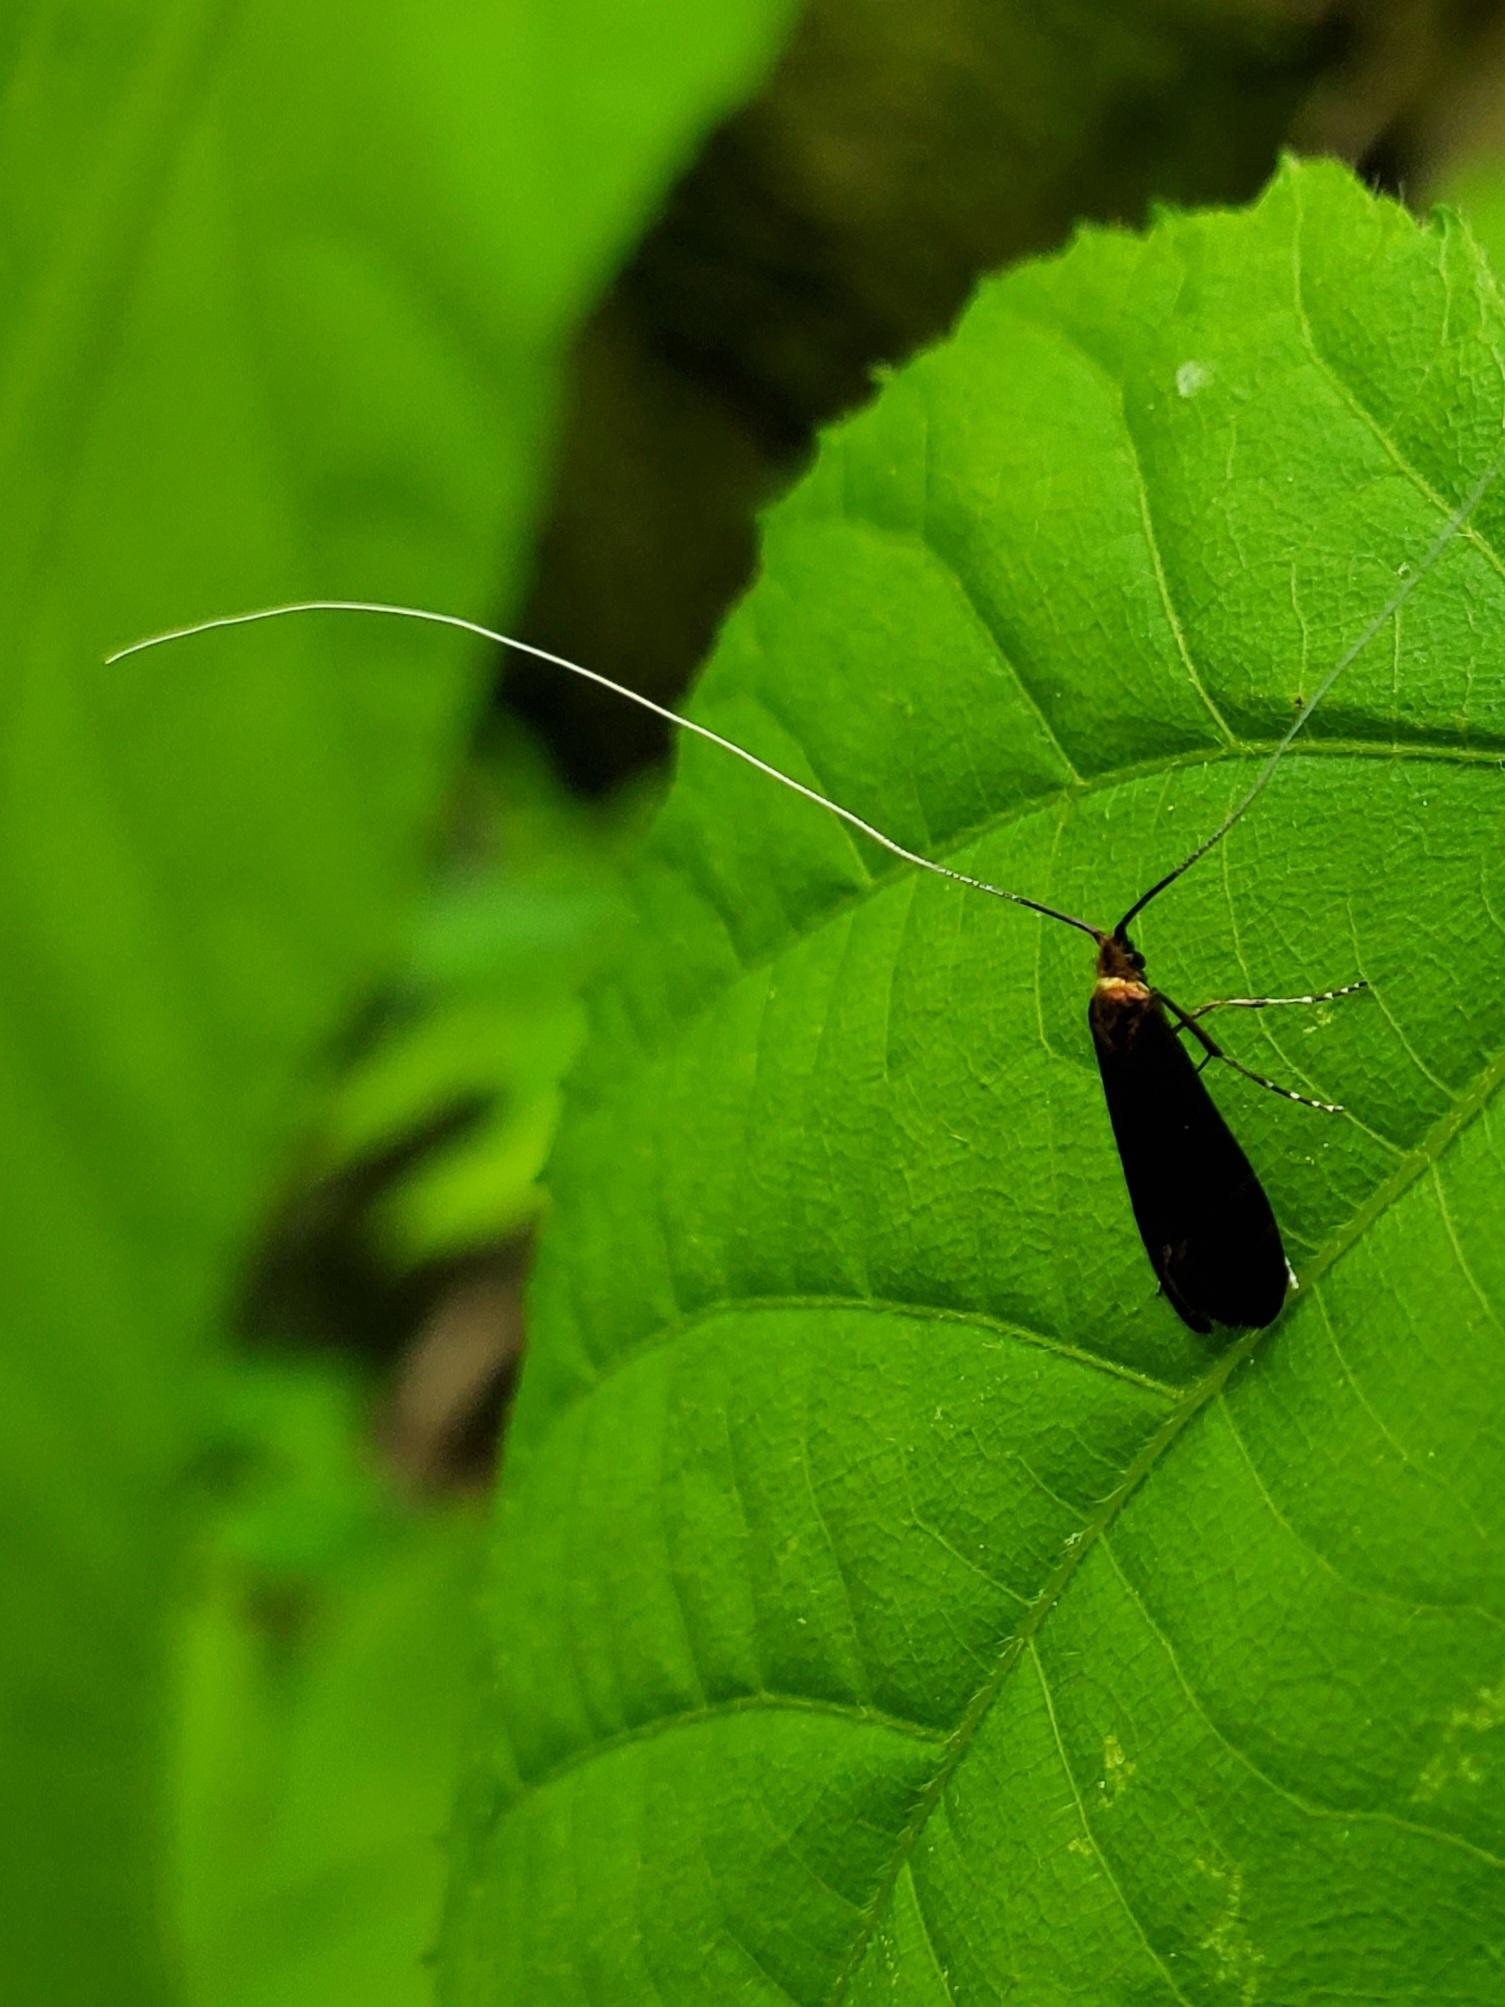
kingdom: Animalia
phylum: Arthropoda
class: Insecta
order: Lepidoptera
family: Adelidae
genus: Adela
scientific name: Adela caeruleella
